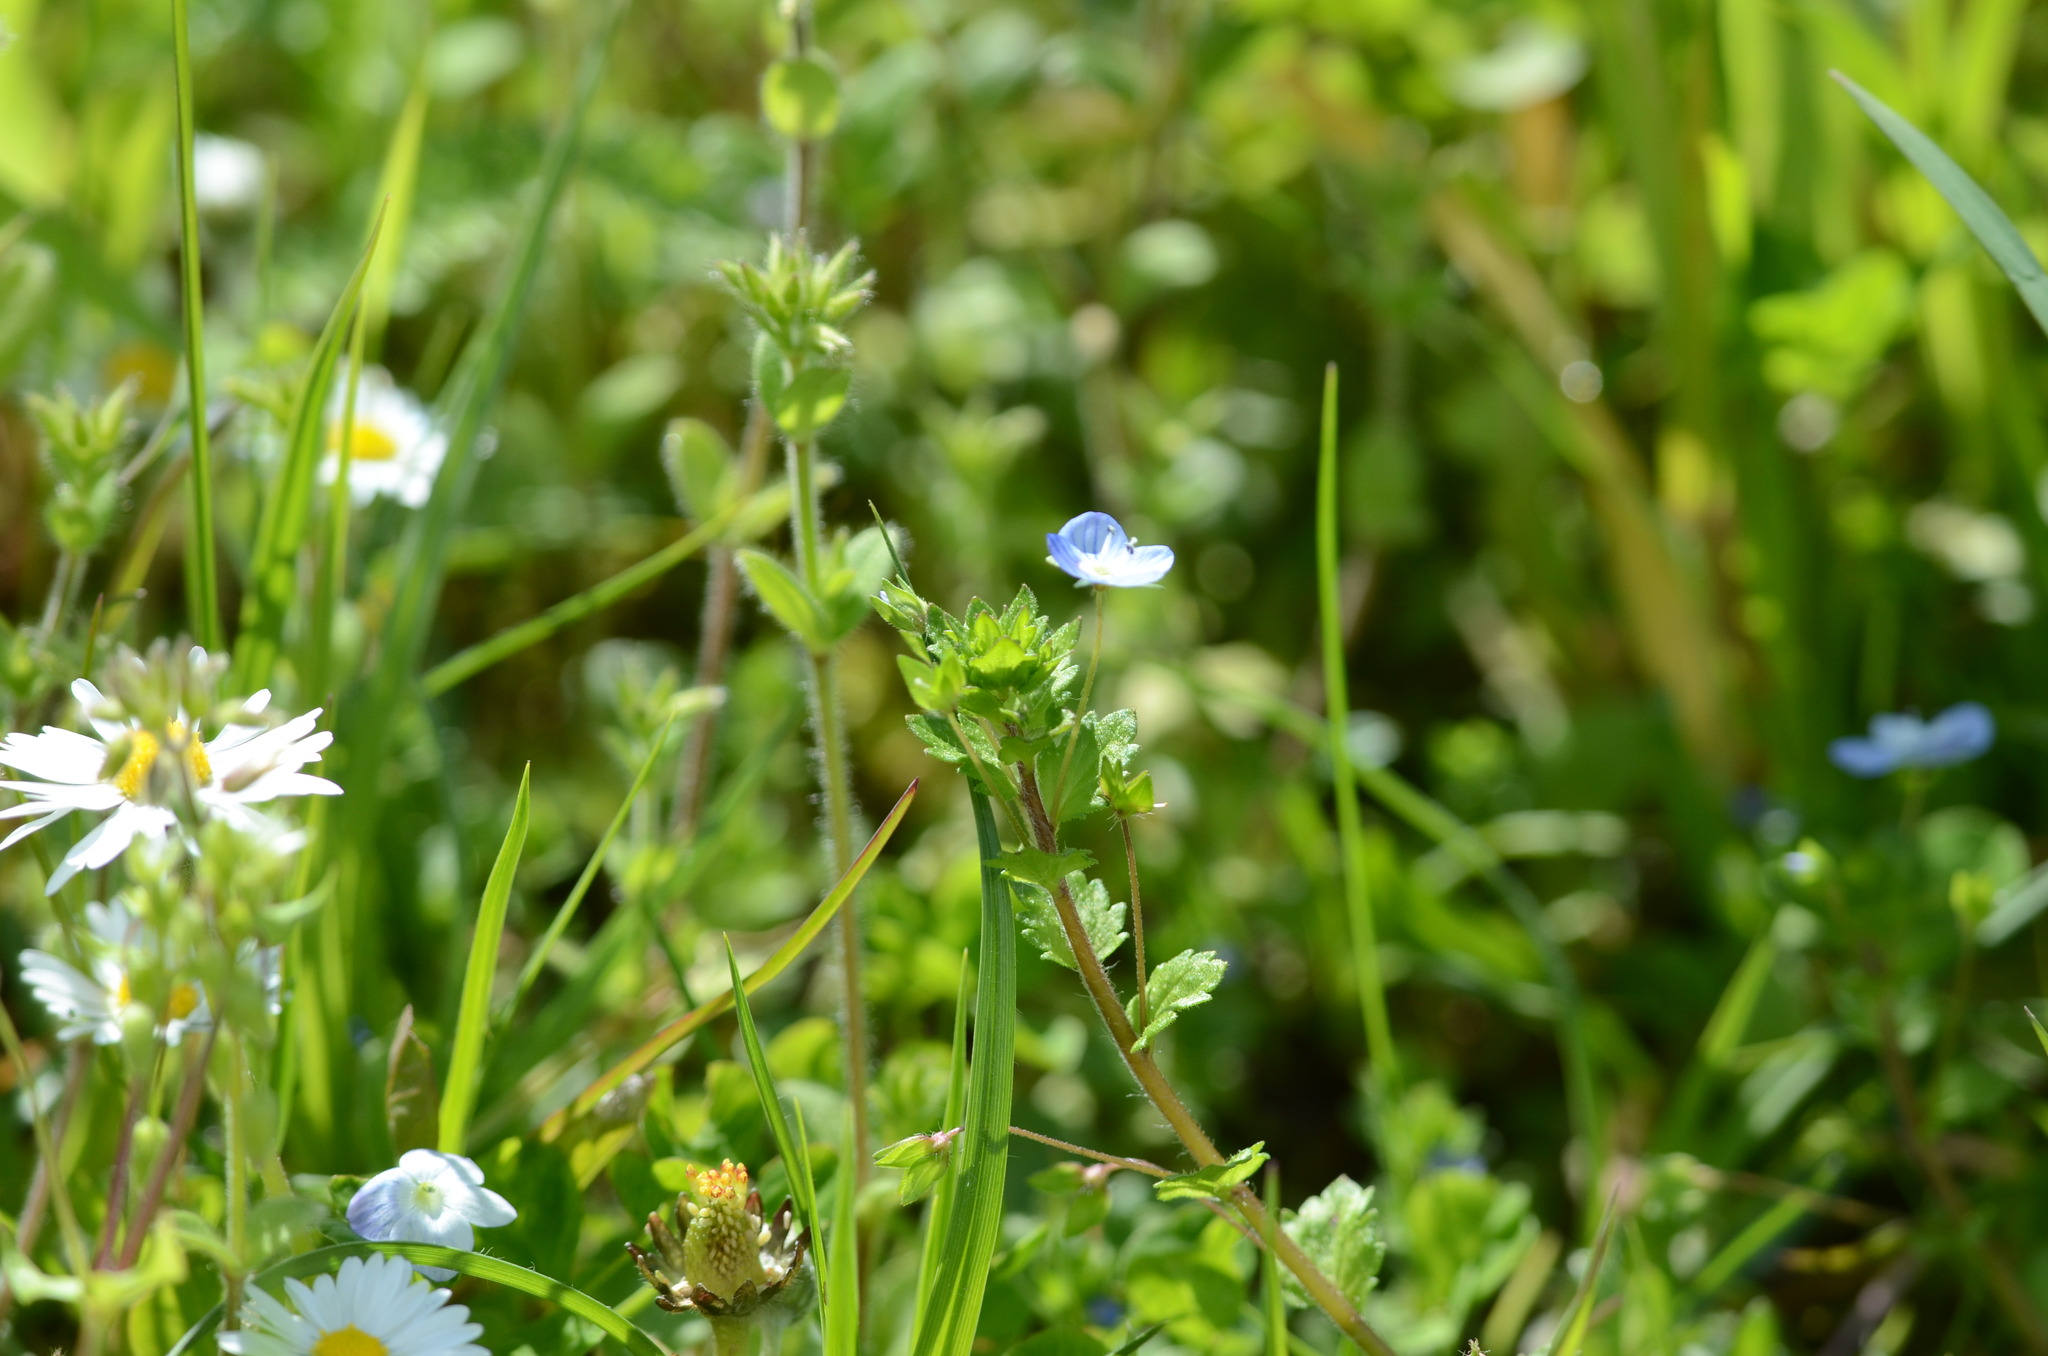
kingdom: Plantae
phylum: Tracheophyta
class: Magnoliopsida
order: Lamiales
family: Plantaginaceae
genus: Veronica
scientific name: Veronica persica
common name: Common field-speedwell
